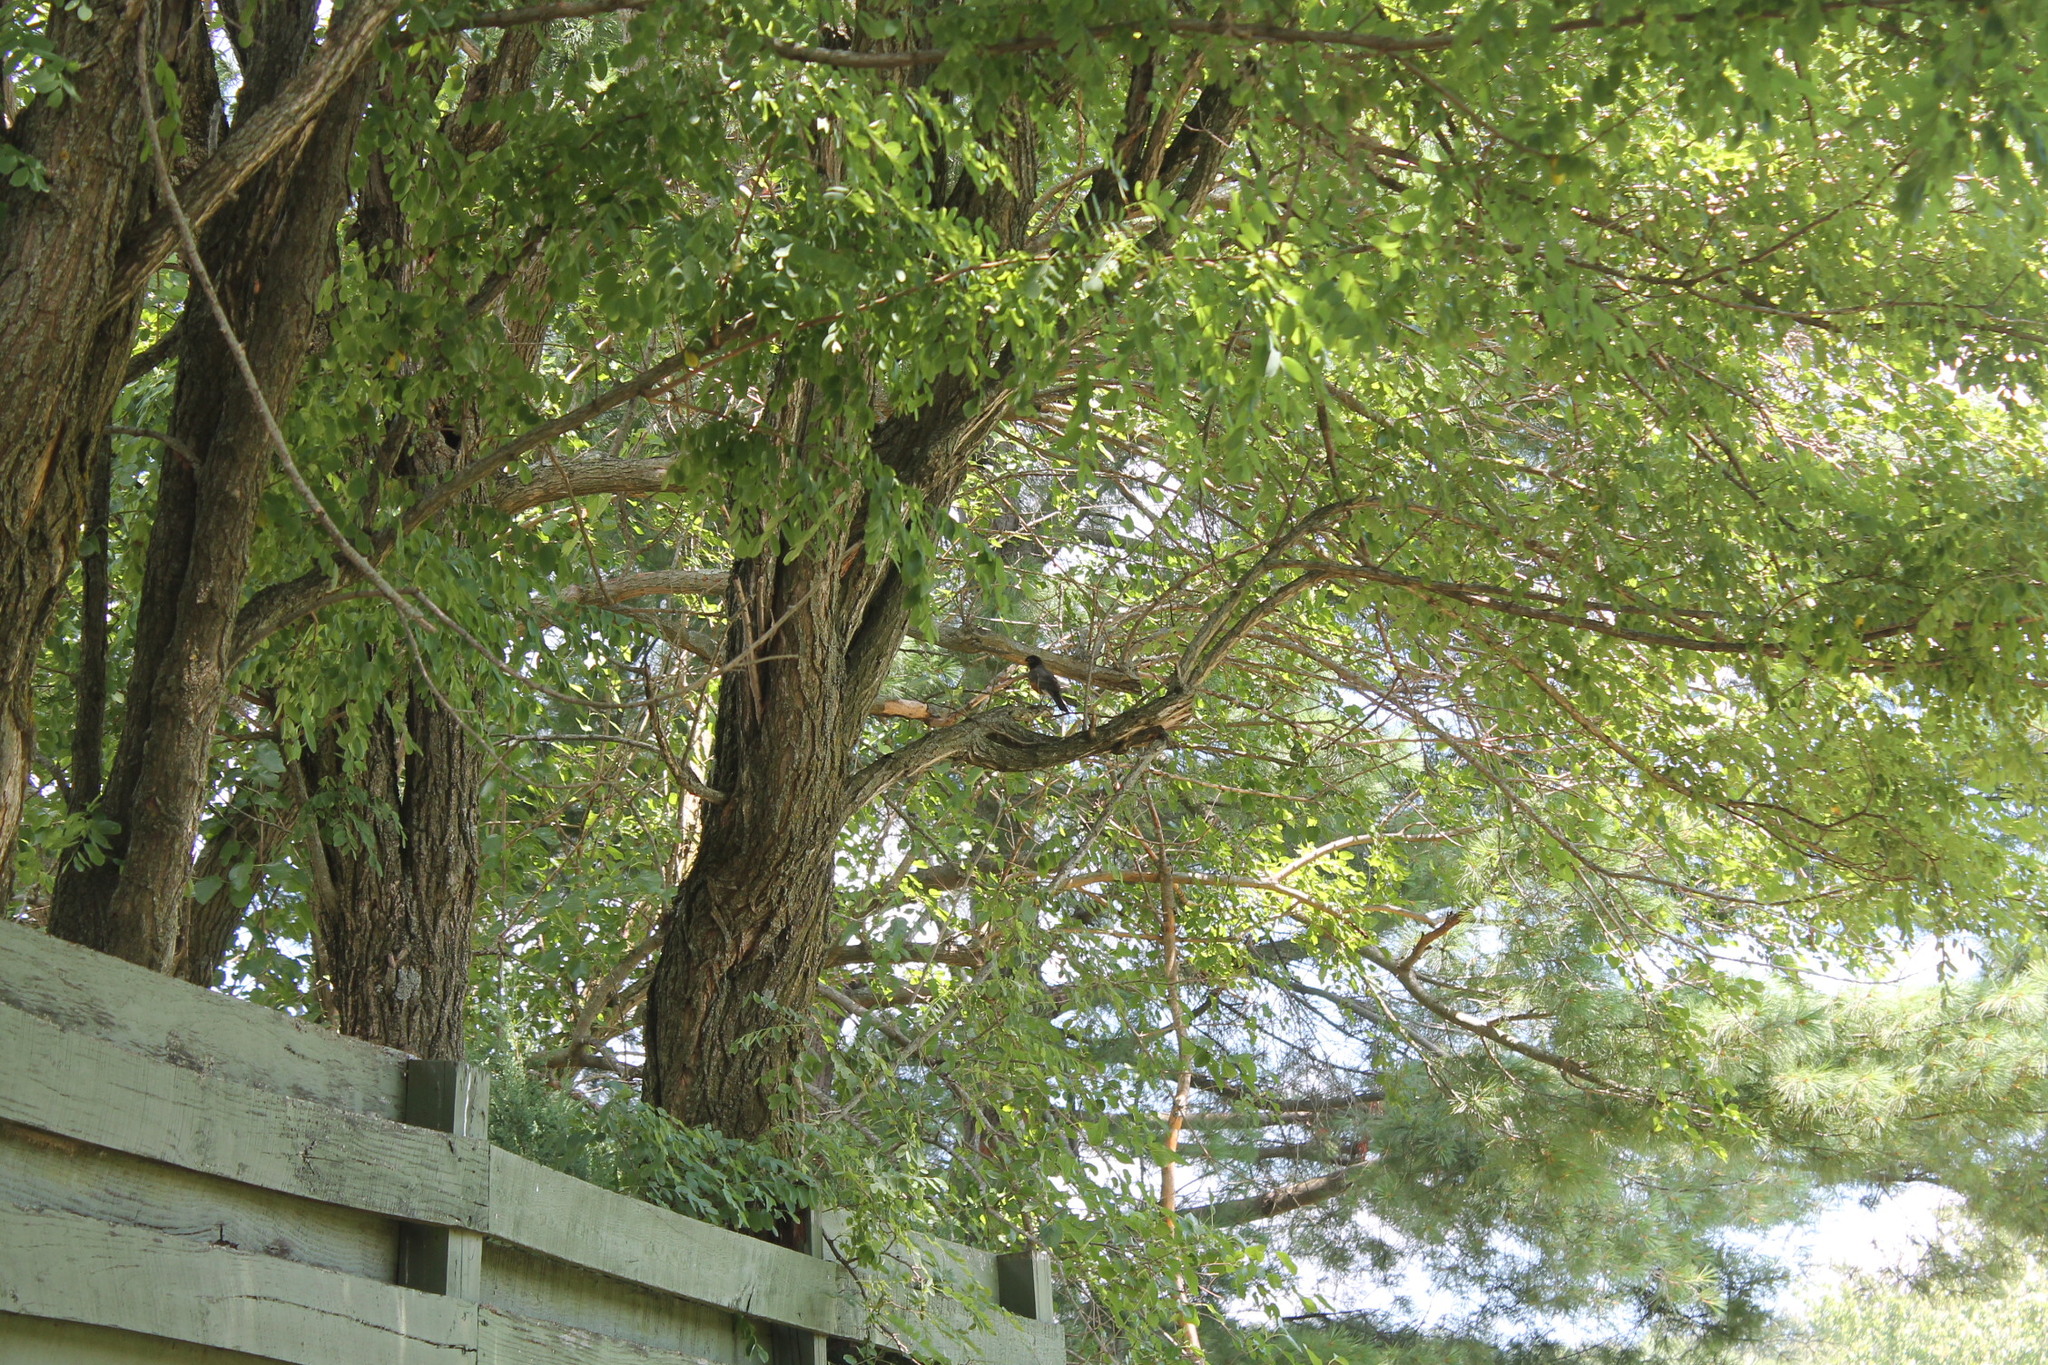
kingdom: Animalia
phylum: Chordata
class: Aves
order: Passeriformes
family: Turdidae
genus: Turdus
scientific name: Turdus migratorius
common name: American robin
